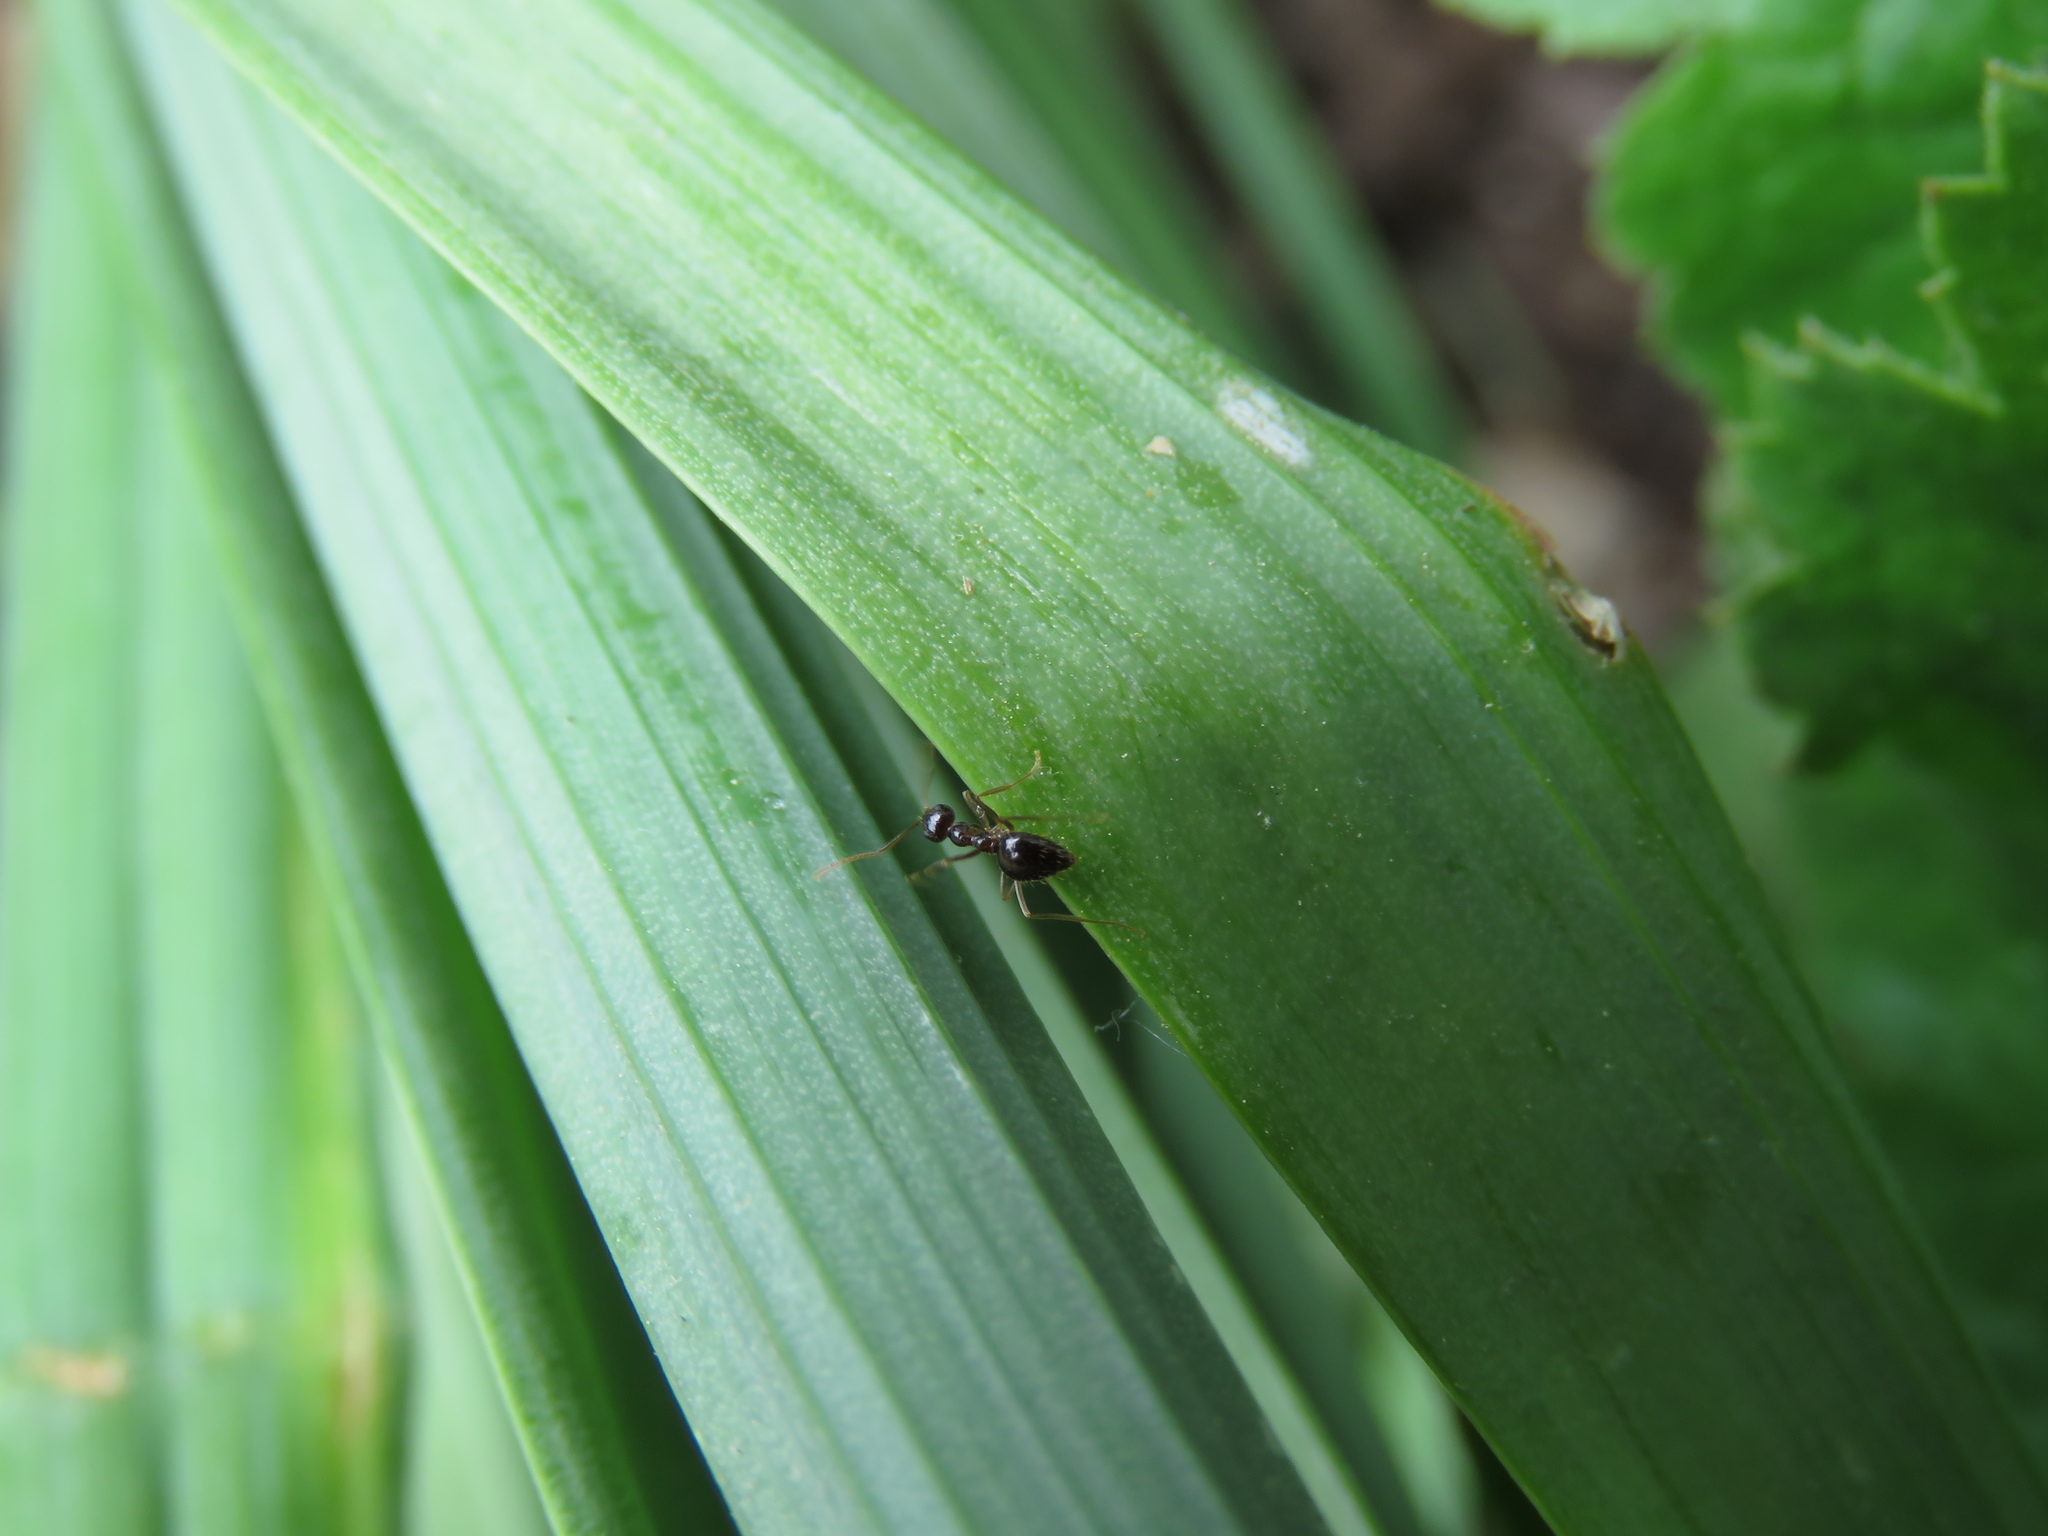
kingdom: Animalia
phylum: Arthropoda
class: Insecta
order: Hymenoptera
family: Formicidae
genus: Prenolepis
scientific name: Prenolepis imparis
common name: Small honey ant
